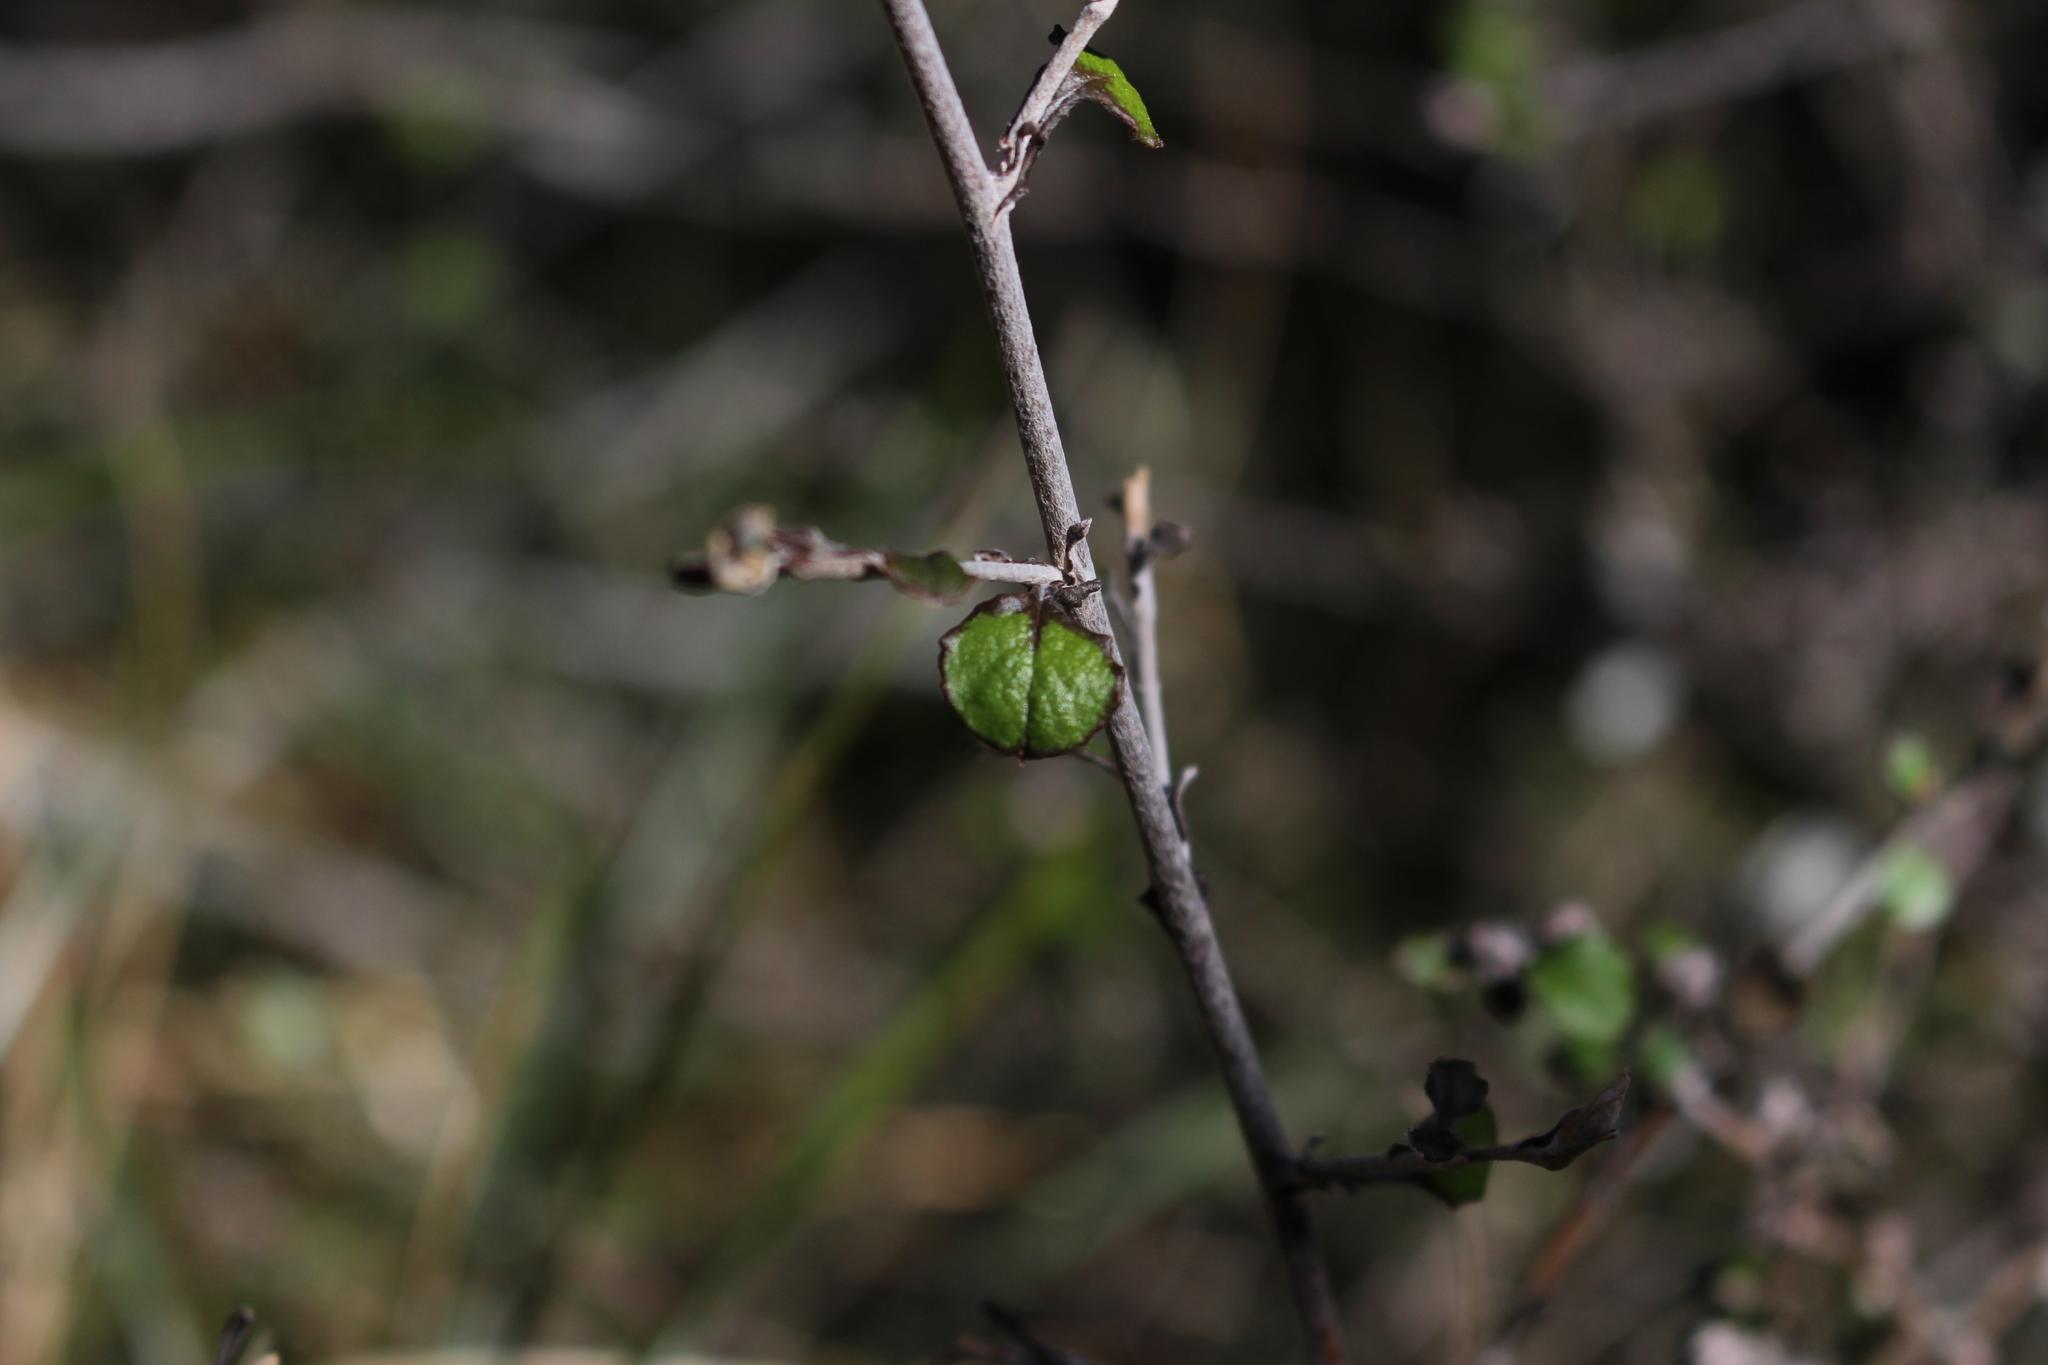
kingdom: Plantae
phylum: Tracheophyta
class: Magnoliopsida
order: Asterales
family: Asteraceae
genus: Ozothamnus
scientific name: Ozothamnus glomeratus
